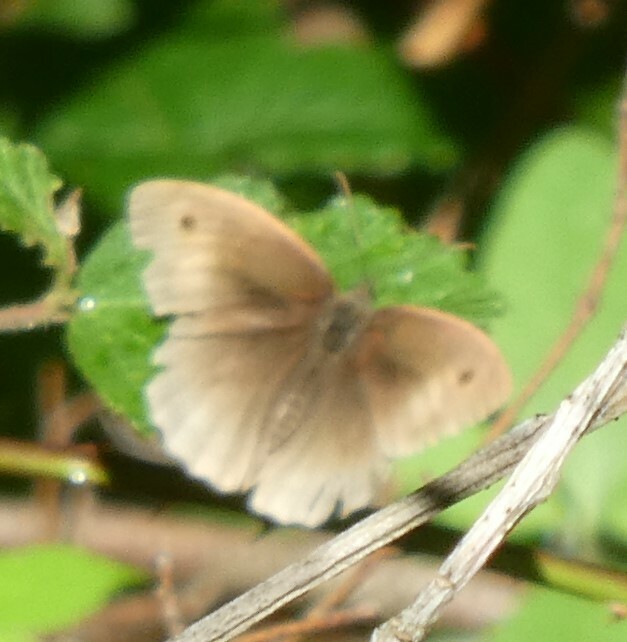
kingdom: Animalia
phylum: Arthropoda
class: Insecta
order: Lepidoptera
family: Nymphalidae
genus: Maniola
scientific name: Maniola jurtina
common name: Meadow brown
